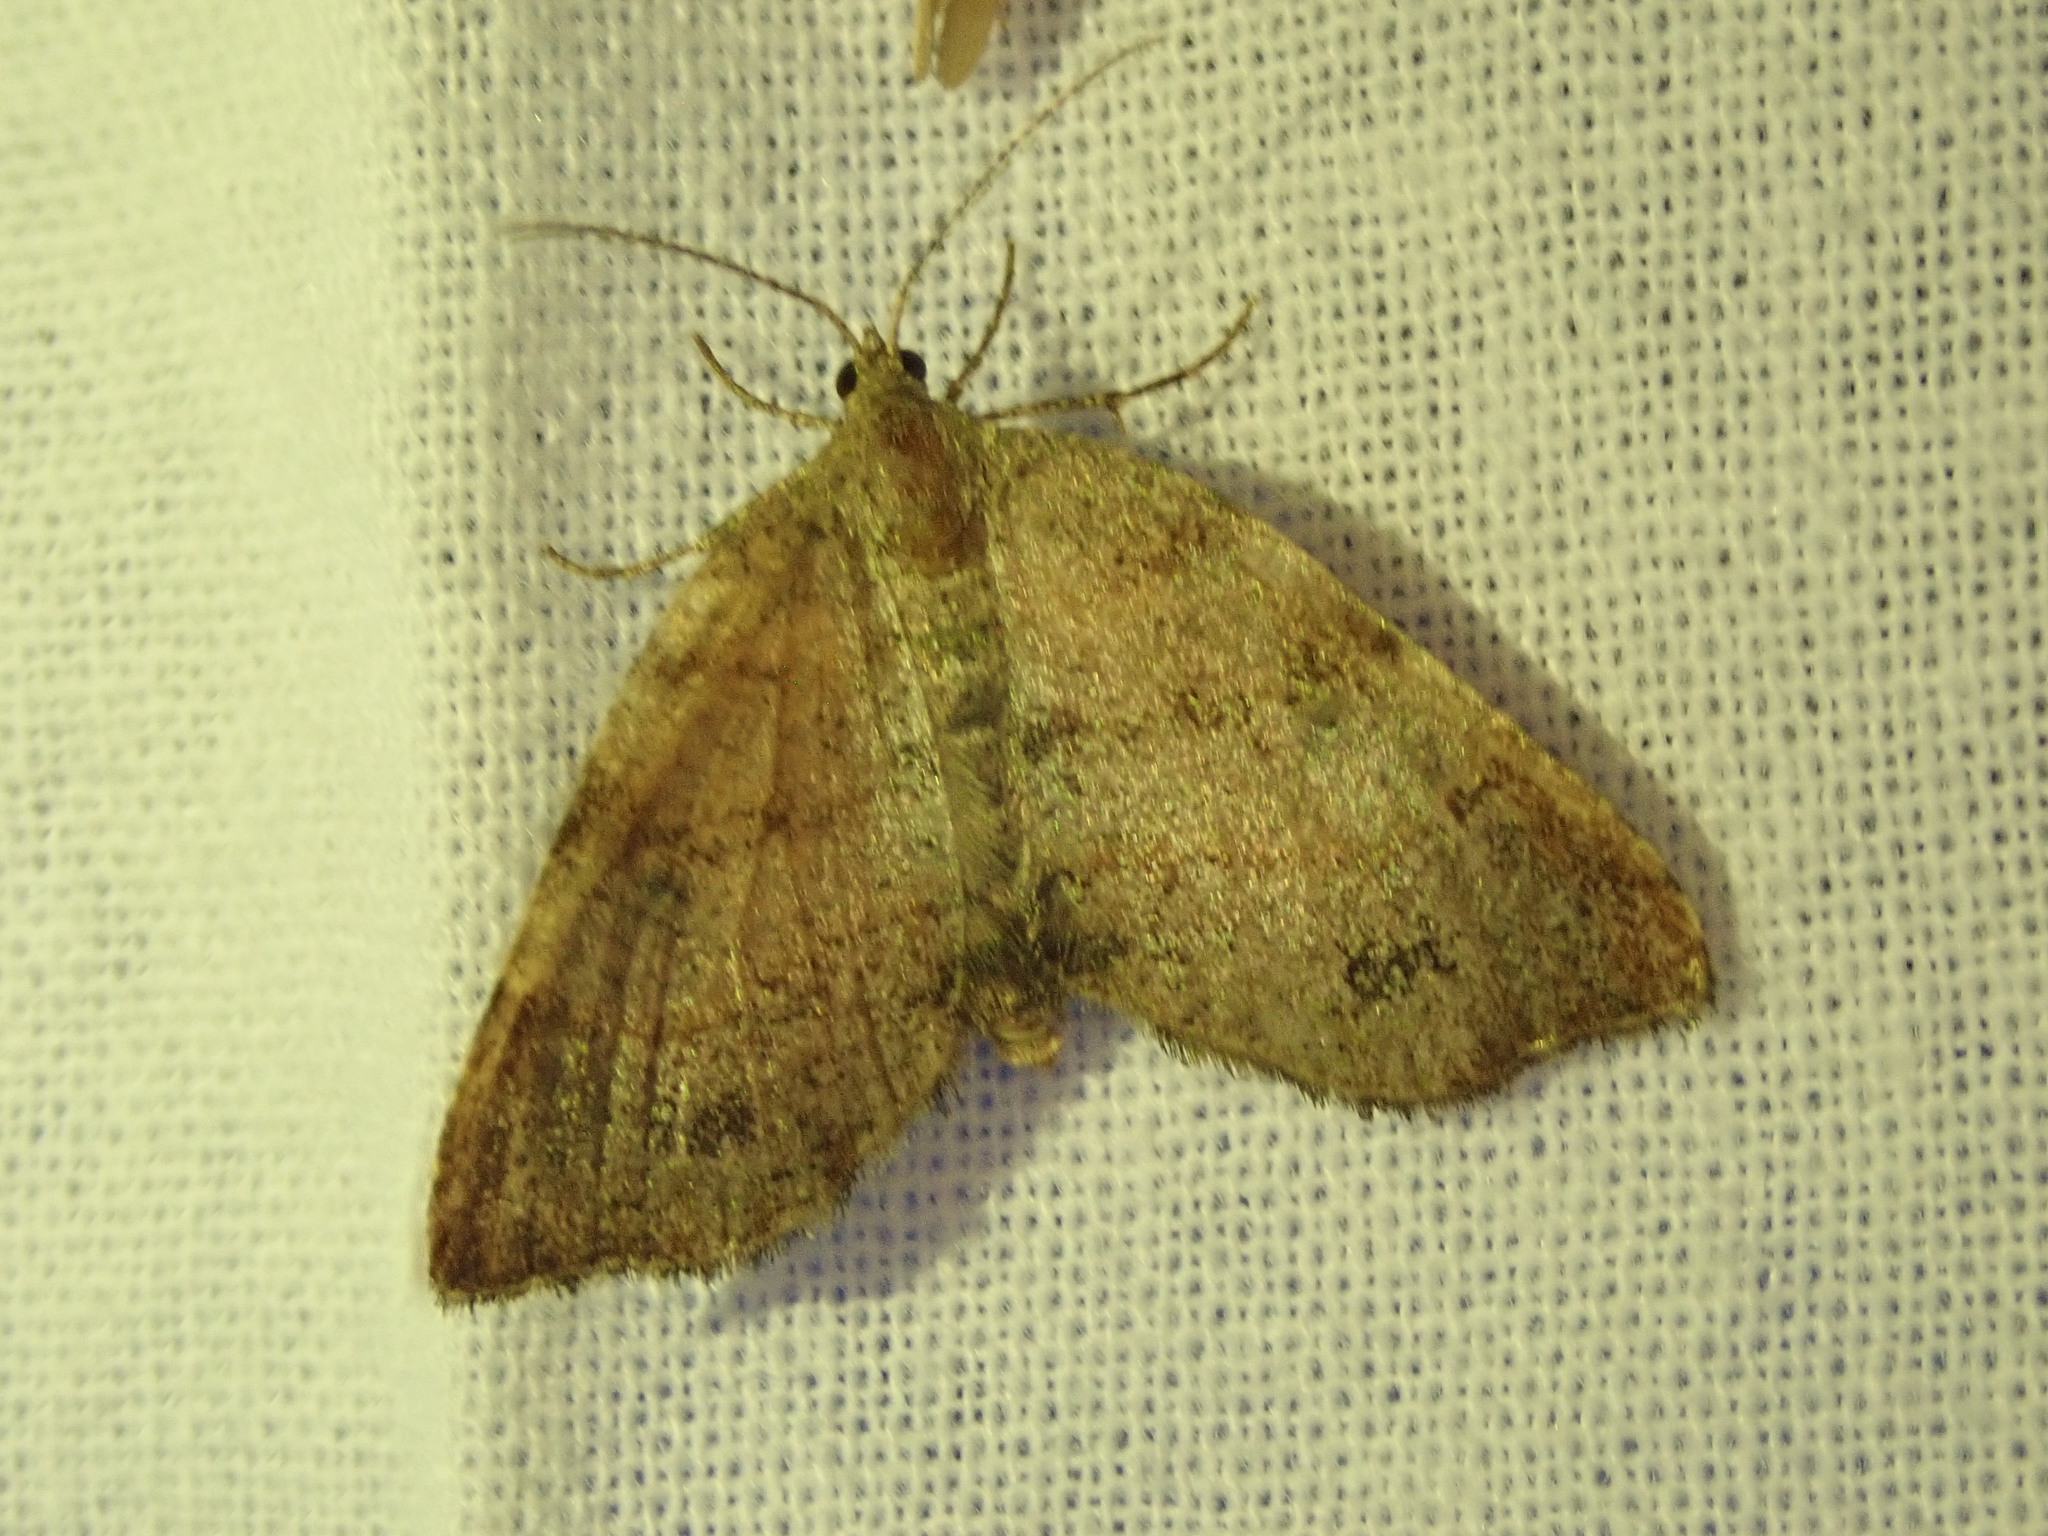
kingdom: Animalia
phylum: Arthropoda
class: Insecta
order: Lepidoptera
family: Geometridae
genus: Mellilla
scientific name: Mellilla xanthometata
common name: Orange wing moth
